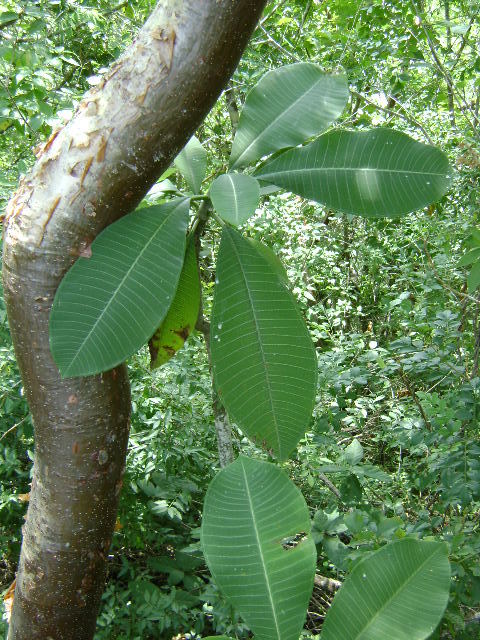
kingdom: Plantae
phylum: Tracheophyta
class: Magnoliopsida
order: Gentianales
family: Apocynaceae
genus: Plumeria
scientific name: Plumeria rubra
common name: Pagoda-tree
